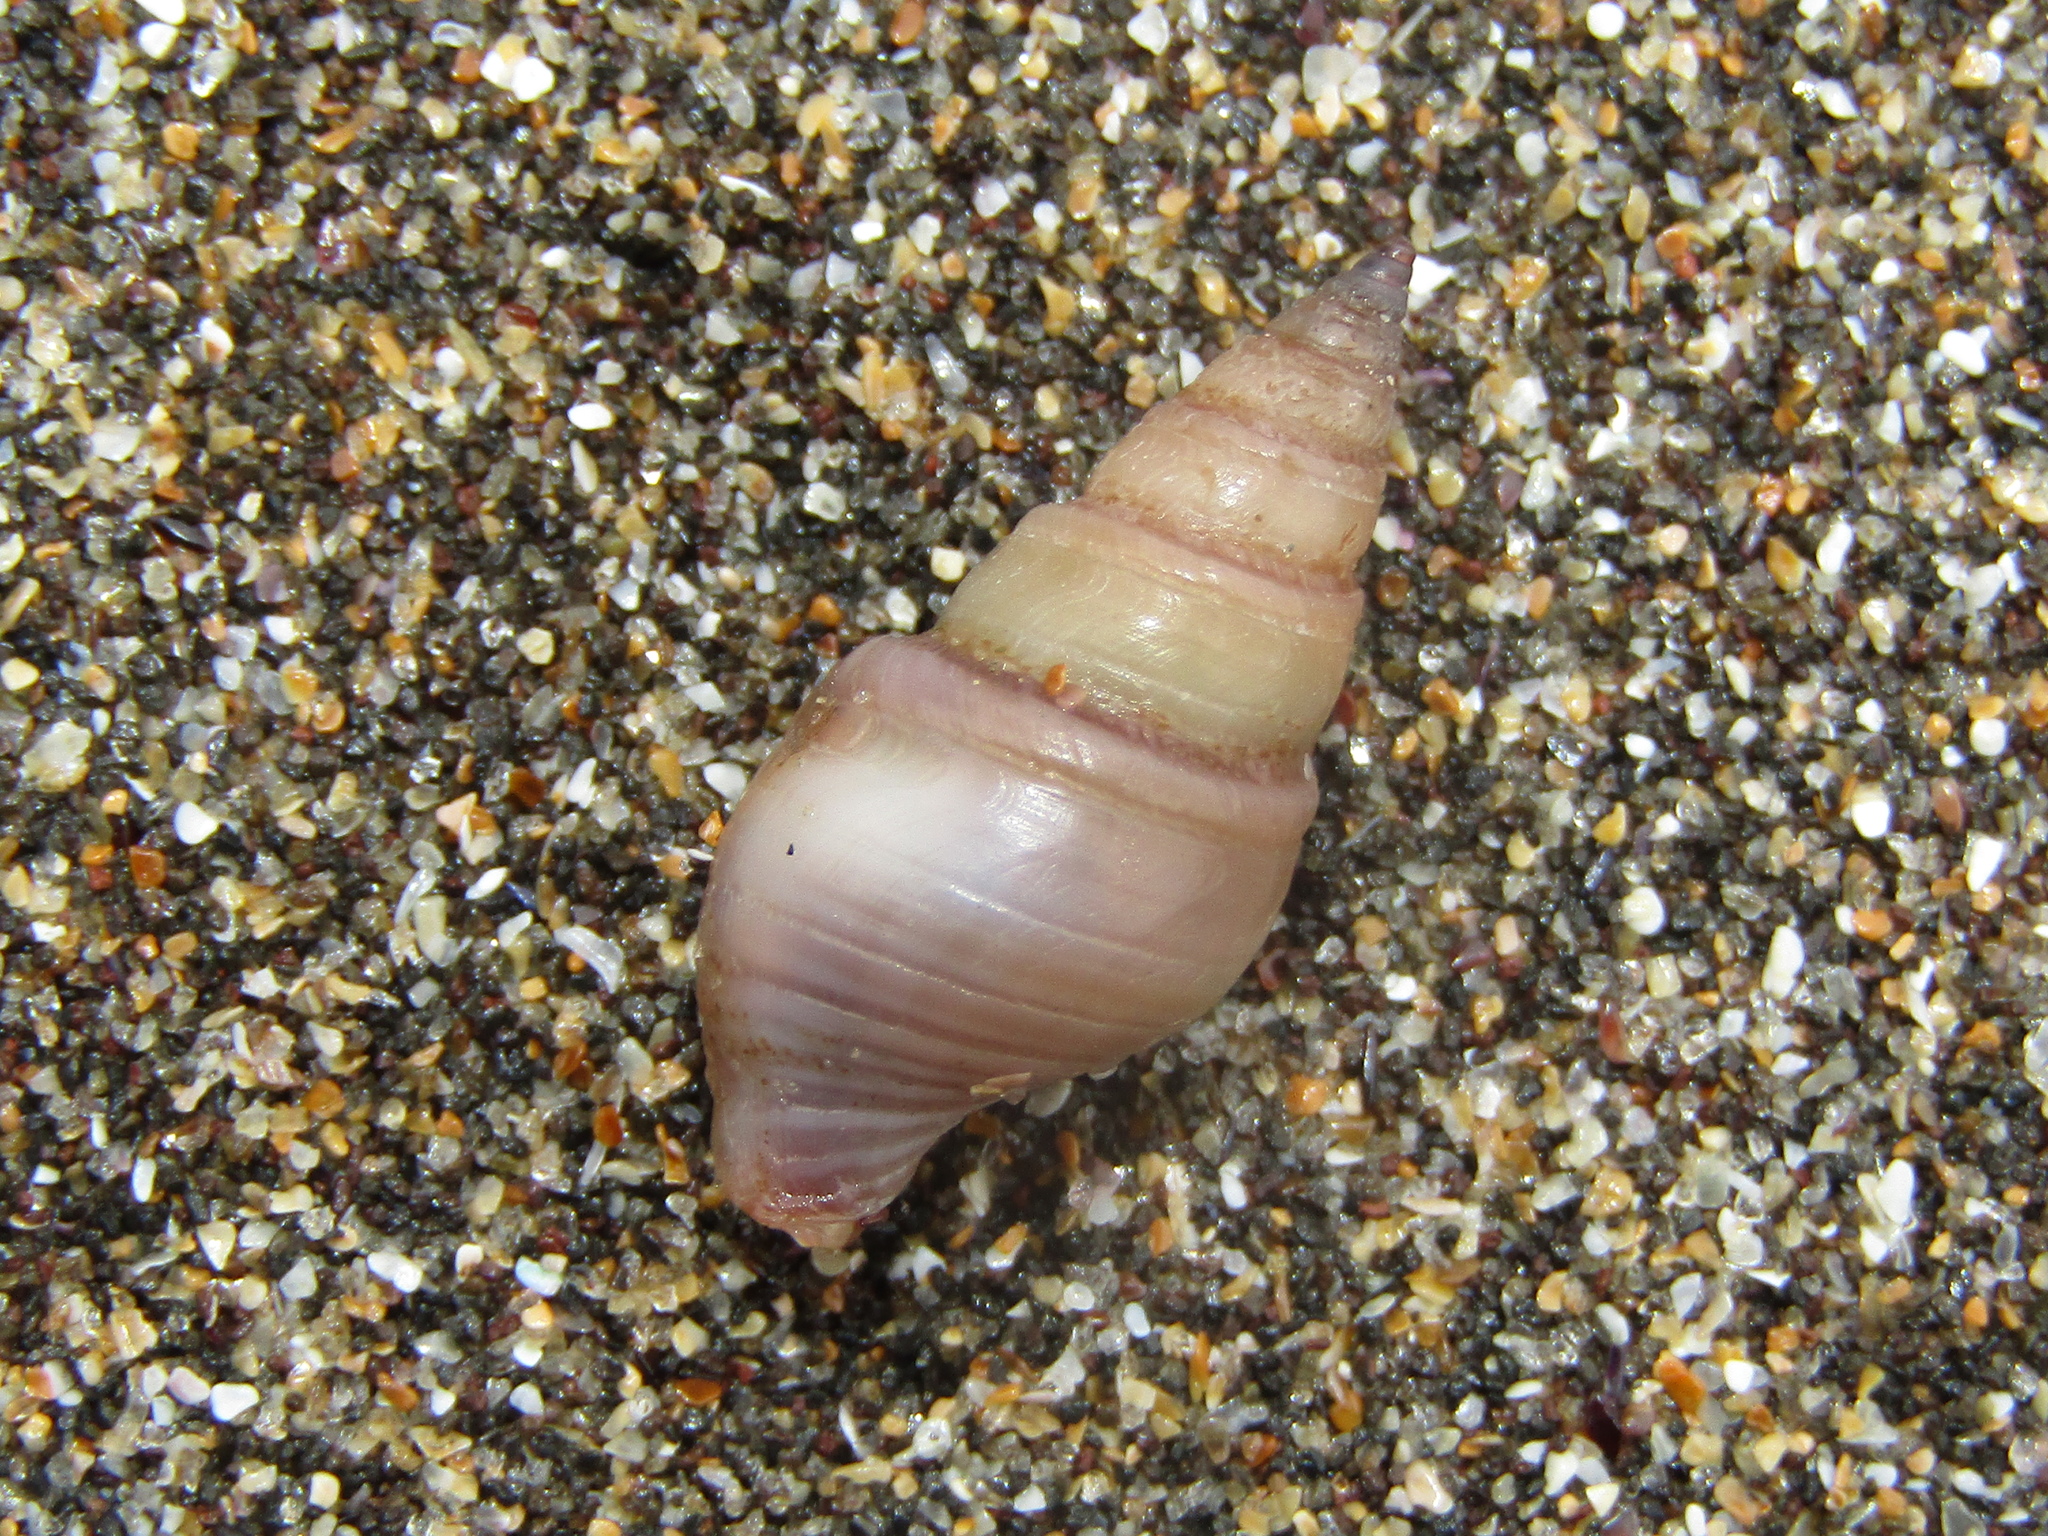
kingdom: Animalia
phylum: Mollusca
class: Gastropoda
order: Neogastropoda
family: Borsoniidae
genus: Phenatoma
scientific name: Phenatoma zealandicum
